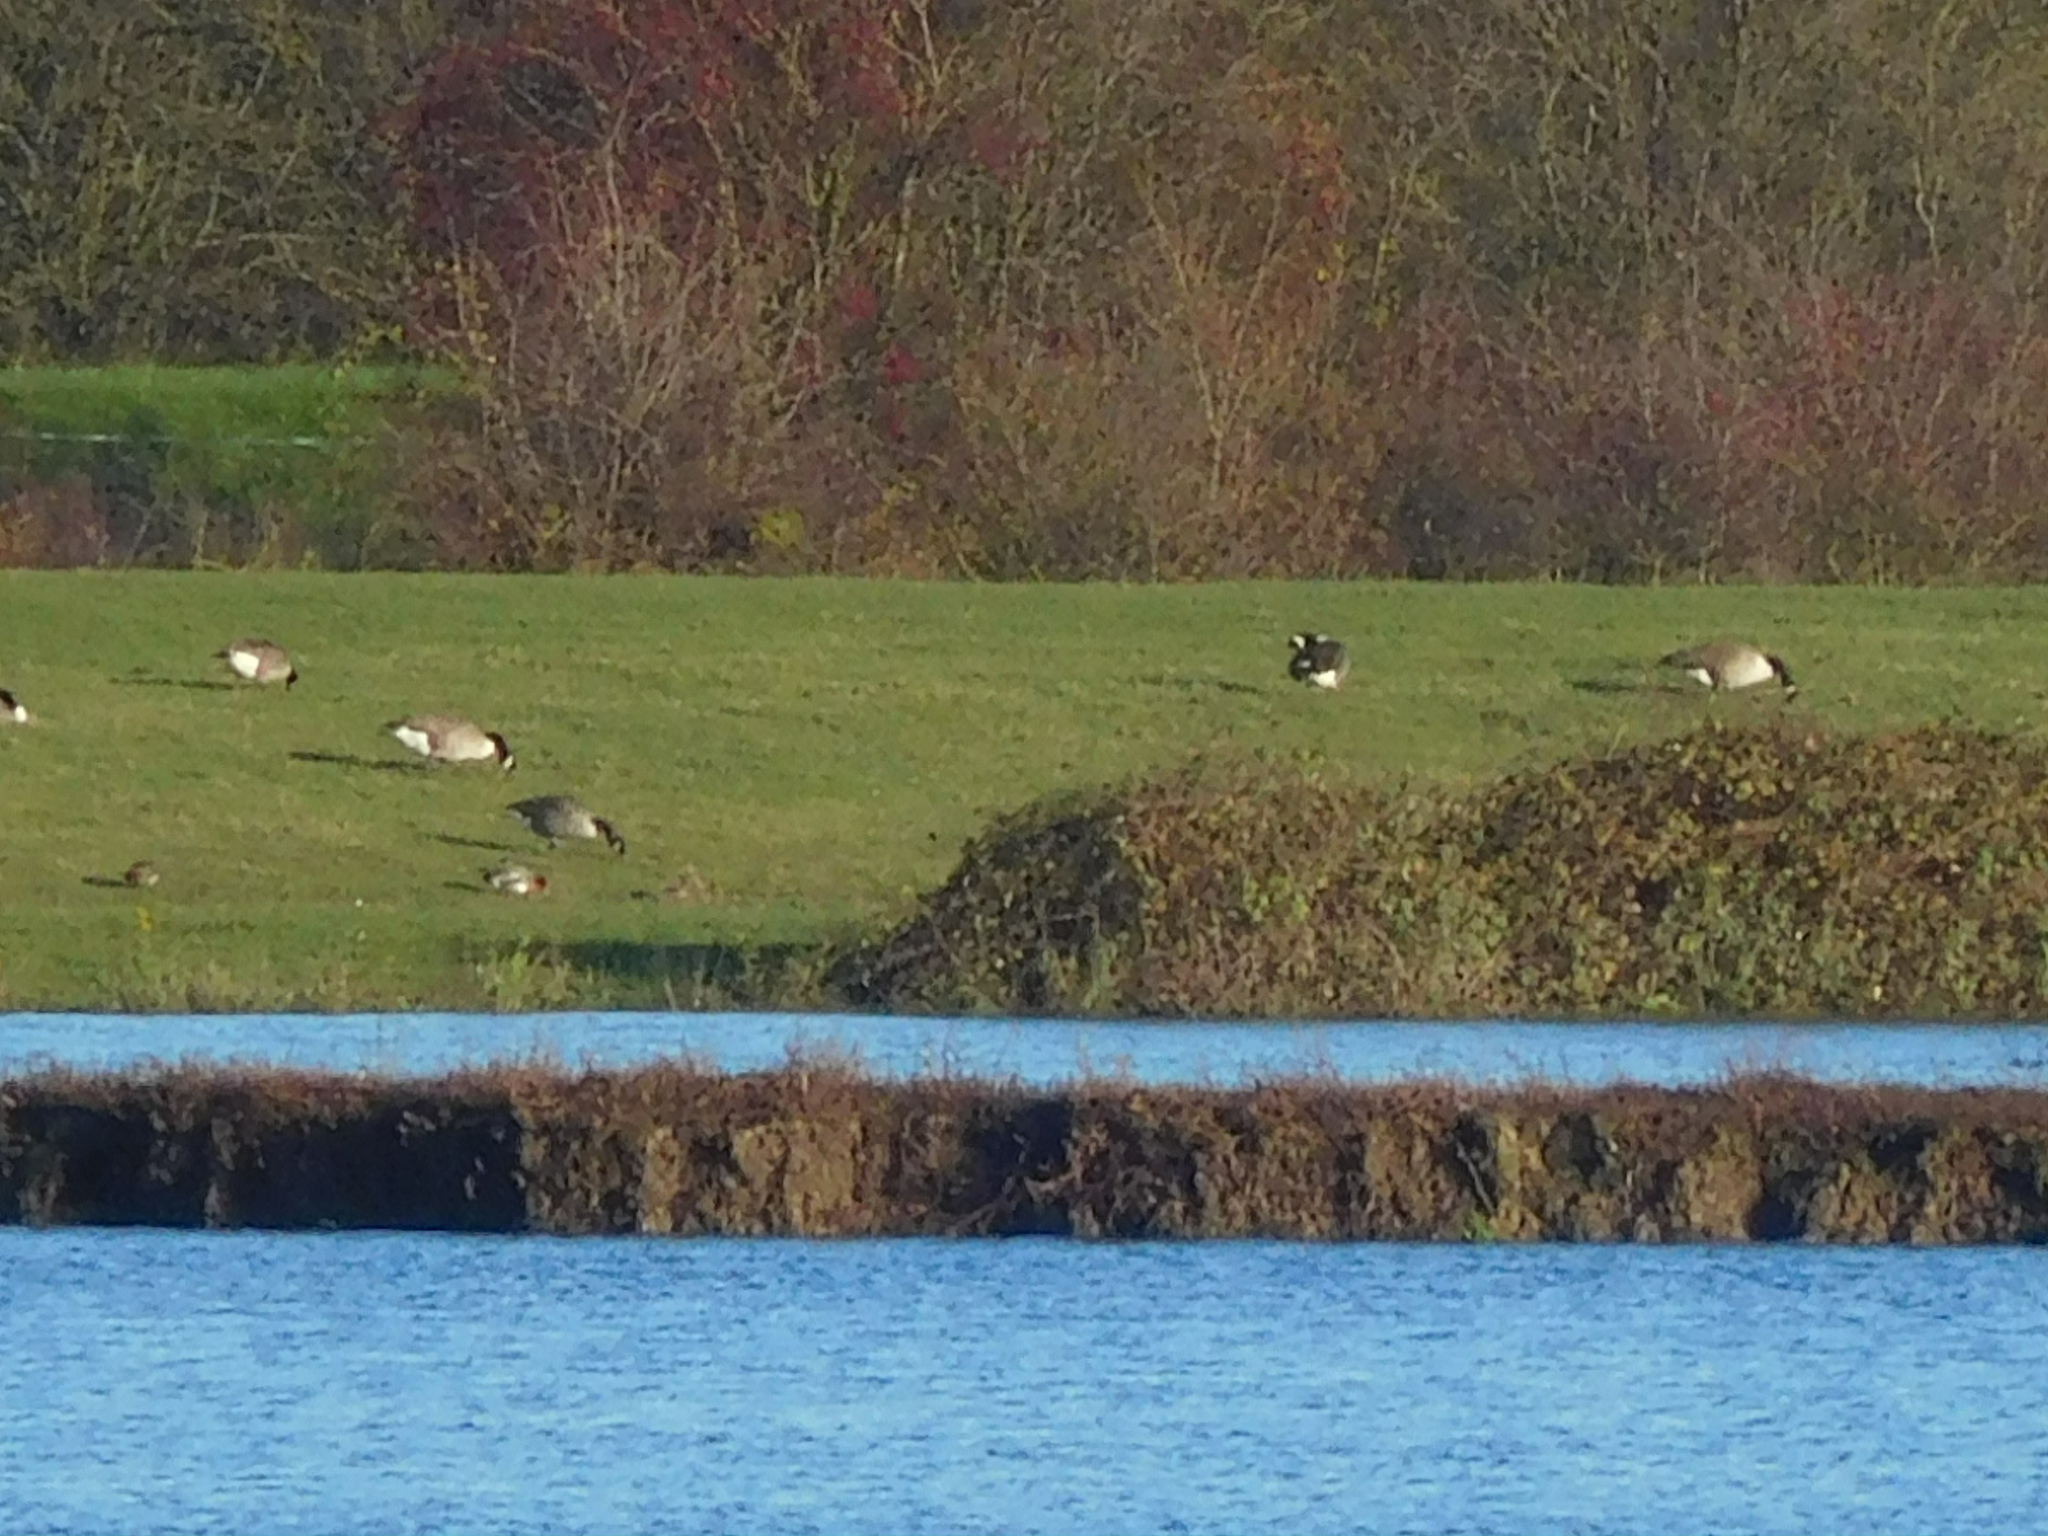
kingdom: Animalia
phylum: Chordata
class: Aves
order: Anseriformes
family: Anatidae
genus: Branta
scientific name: Branta canadensis
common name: Canada goose
